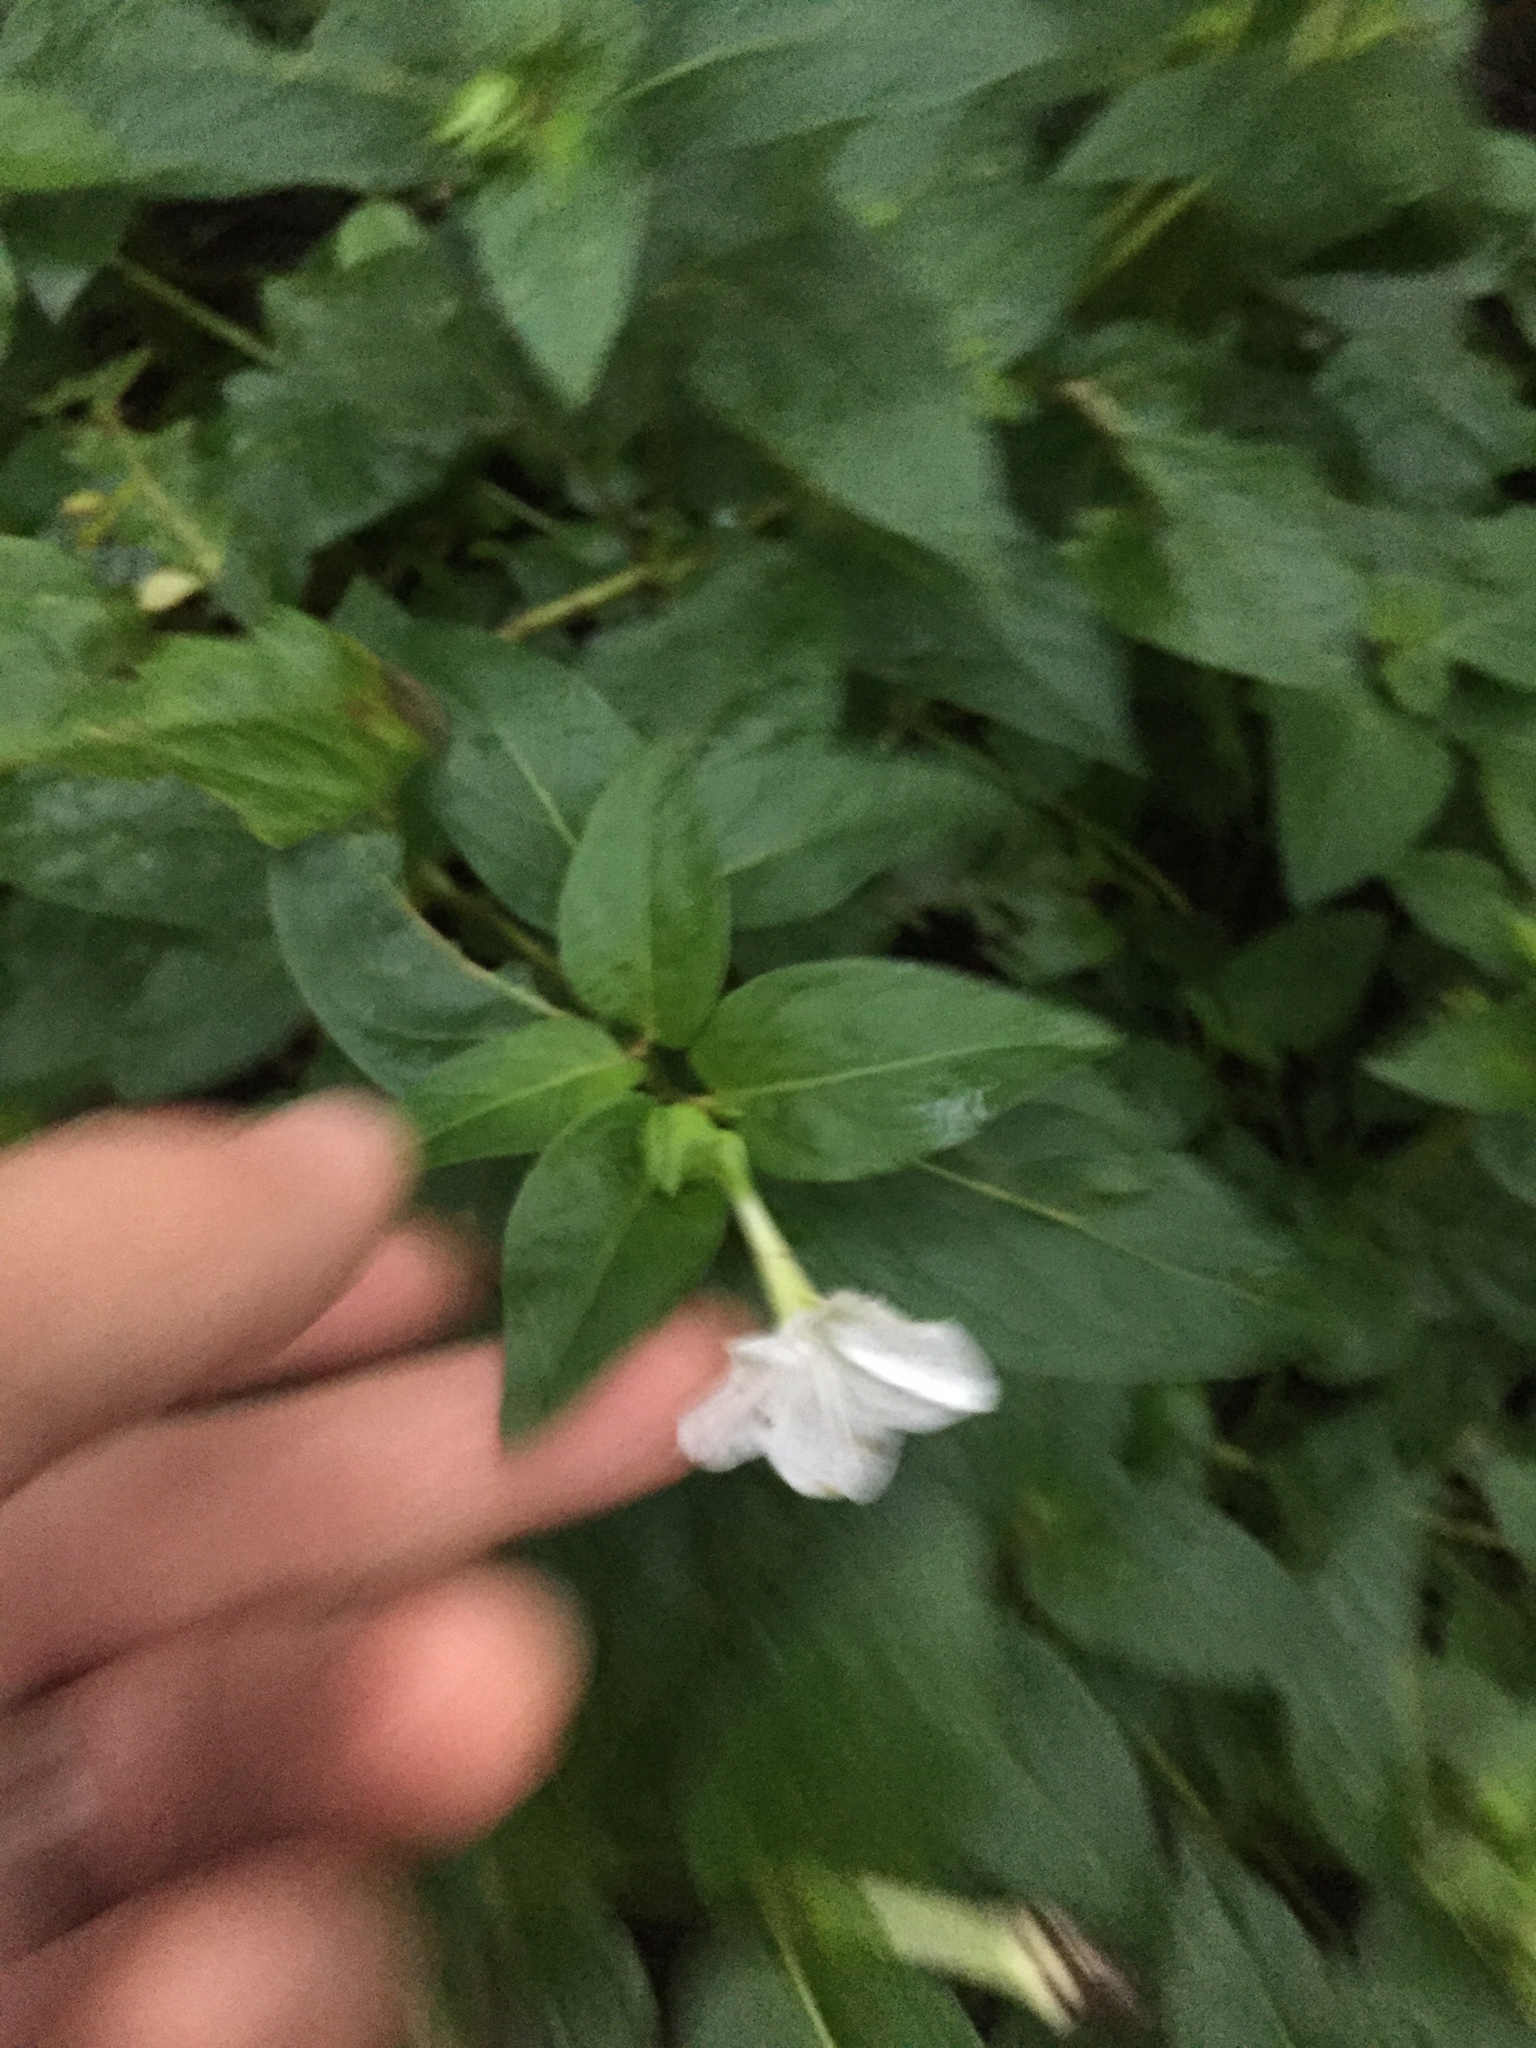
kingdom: Plantae
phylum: Tracheophyta
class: Magnoliopsida
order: Caryophyllales
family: Nyctaginaceae
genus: Mirabilis
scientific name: Mirabilis jalapa
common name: Marvel-of-peru
